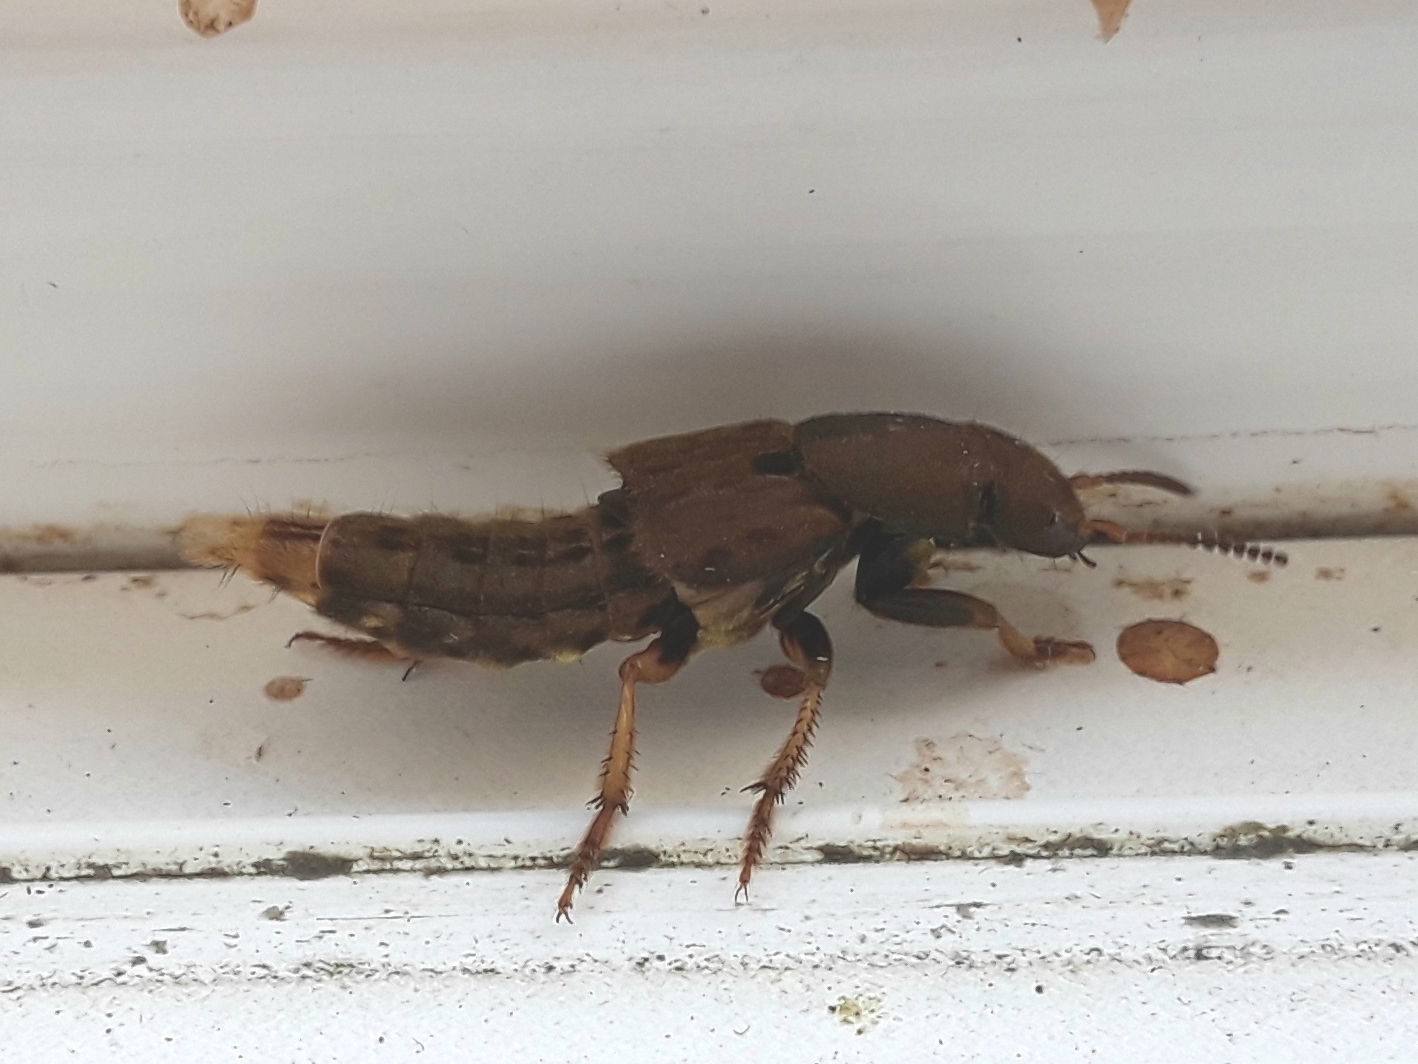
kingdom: Animalia
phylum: Arthropoda
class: Insecta
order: Coleoptera
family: Staphylinidae
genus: Platydracus
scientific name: Platydracus maculosus
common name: Brown rove beetle
